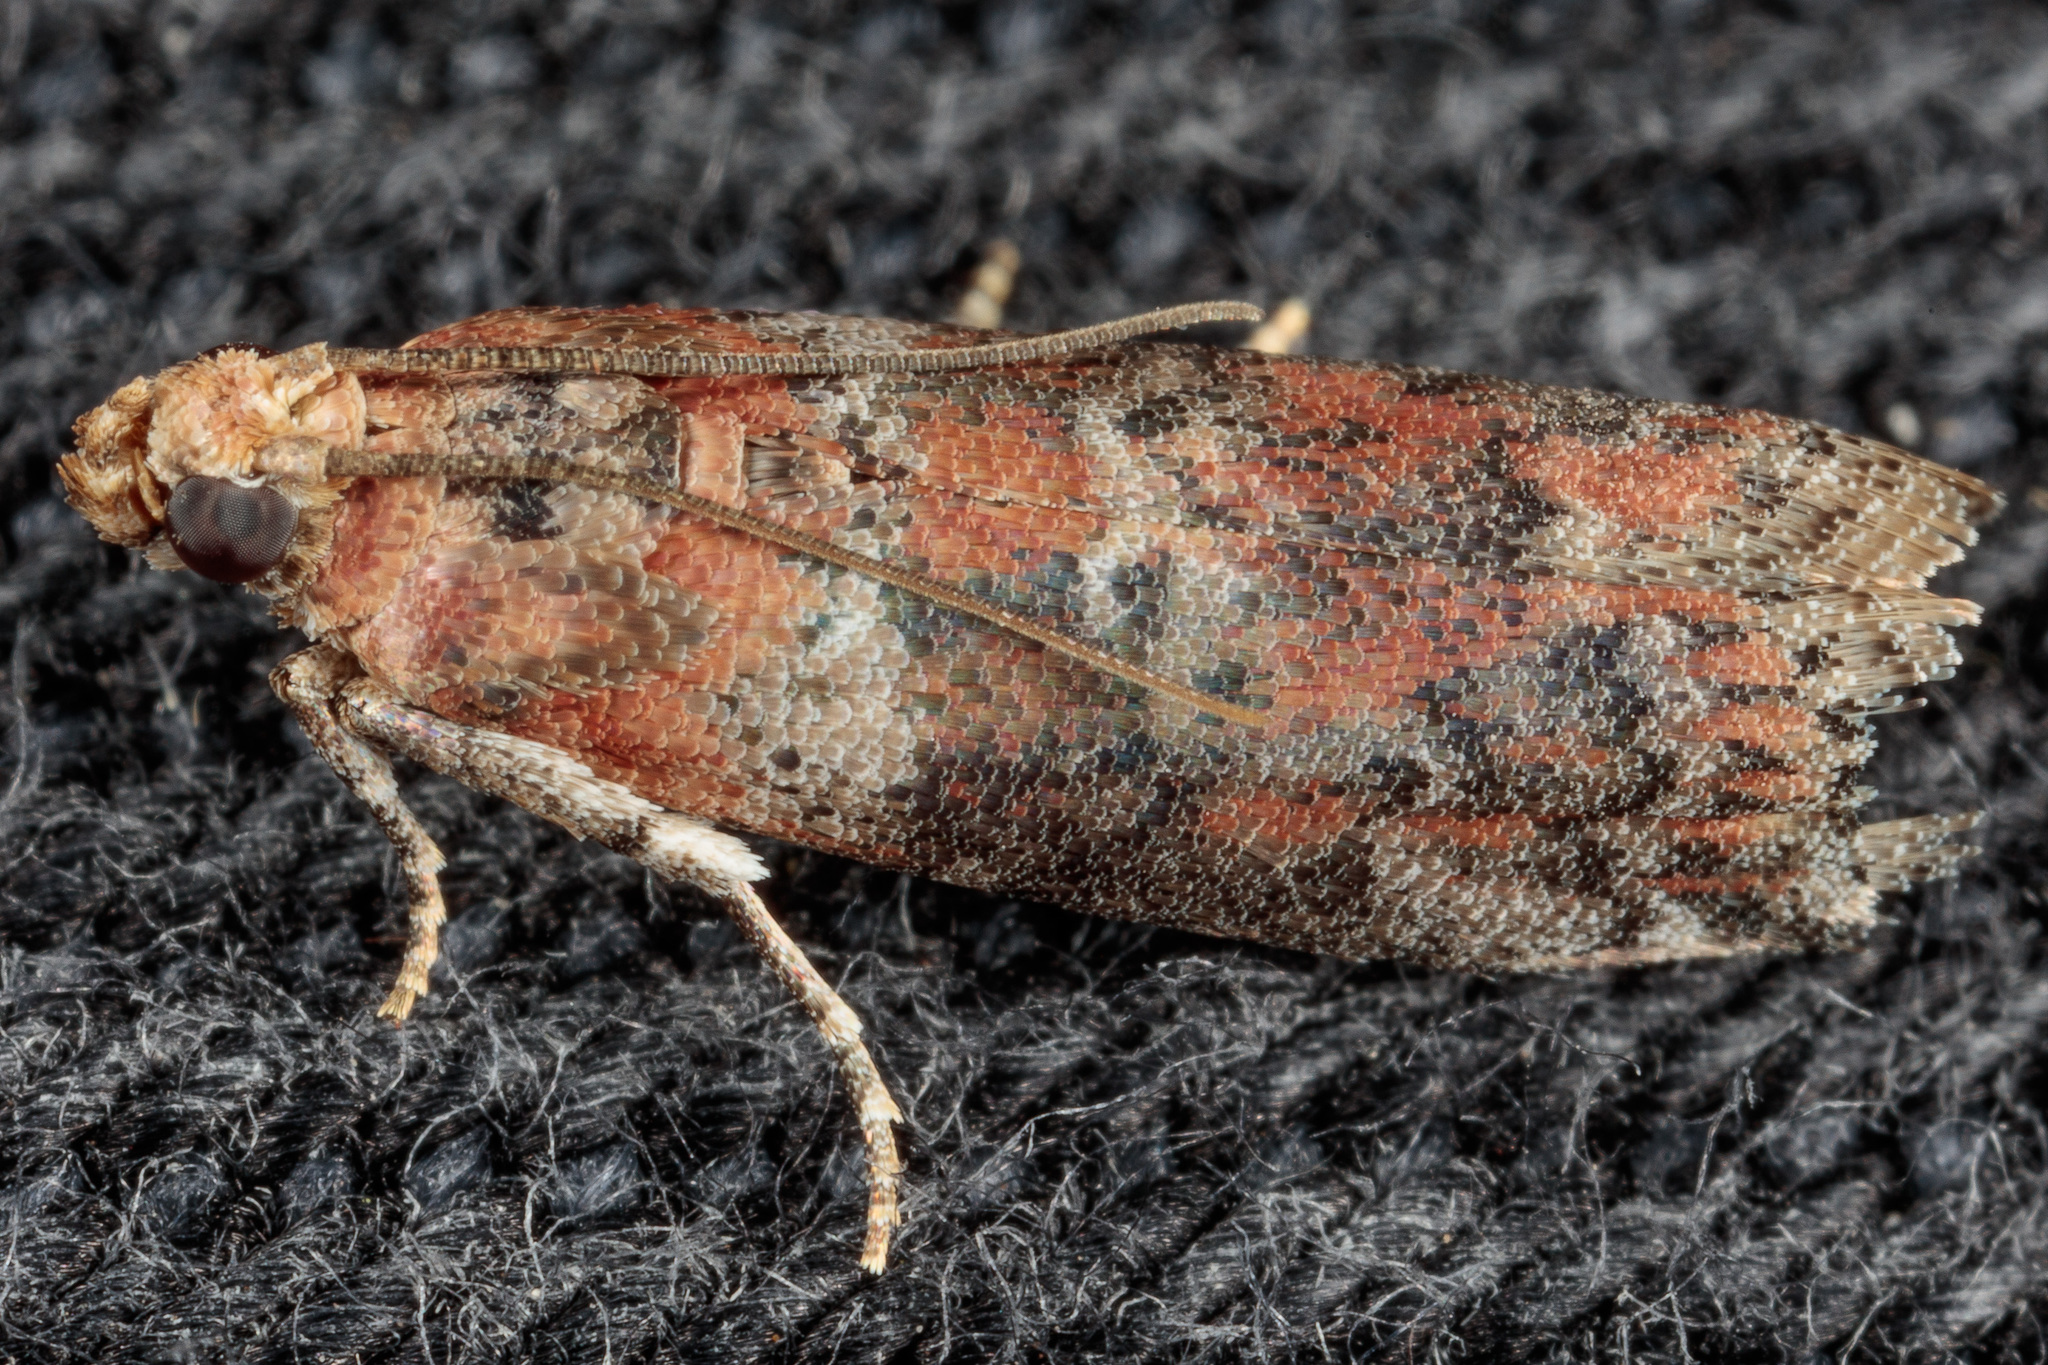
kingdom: Animalia
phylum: Arthropoda
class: Insecta
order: Lepidoptera
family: Pyralidae
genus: Sciota
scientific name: Sciota
